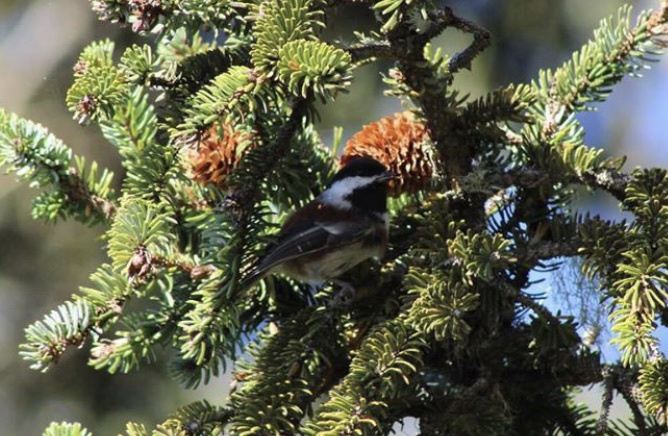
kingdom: Animalia
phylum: Chordata
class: Aves
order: Passeriformes
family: Paridae
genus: Poecile
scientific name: Poecile rufescens
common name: Chestnut-backed chickadee
